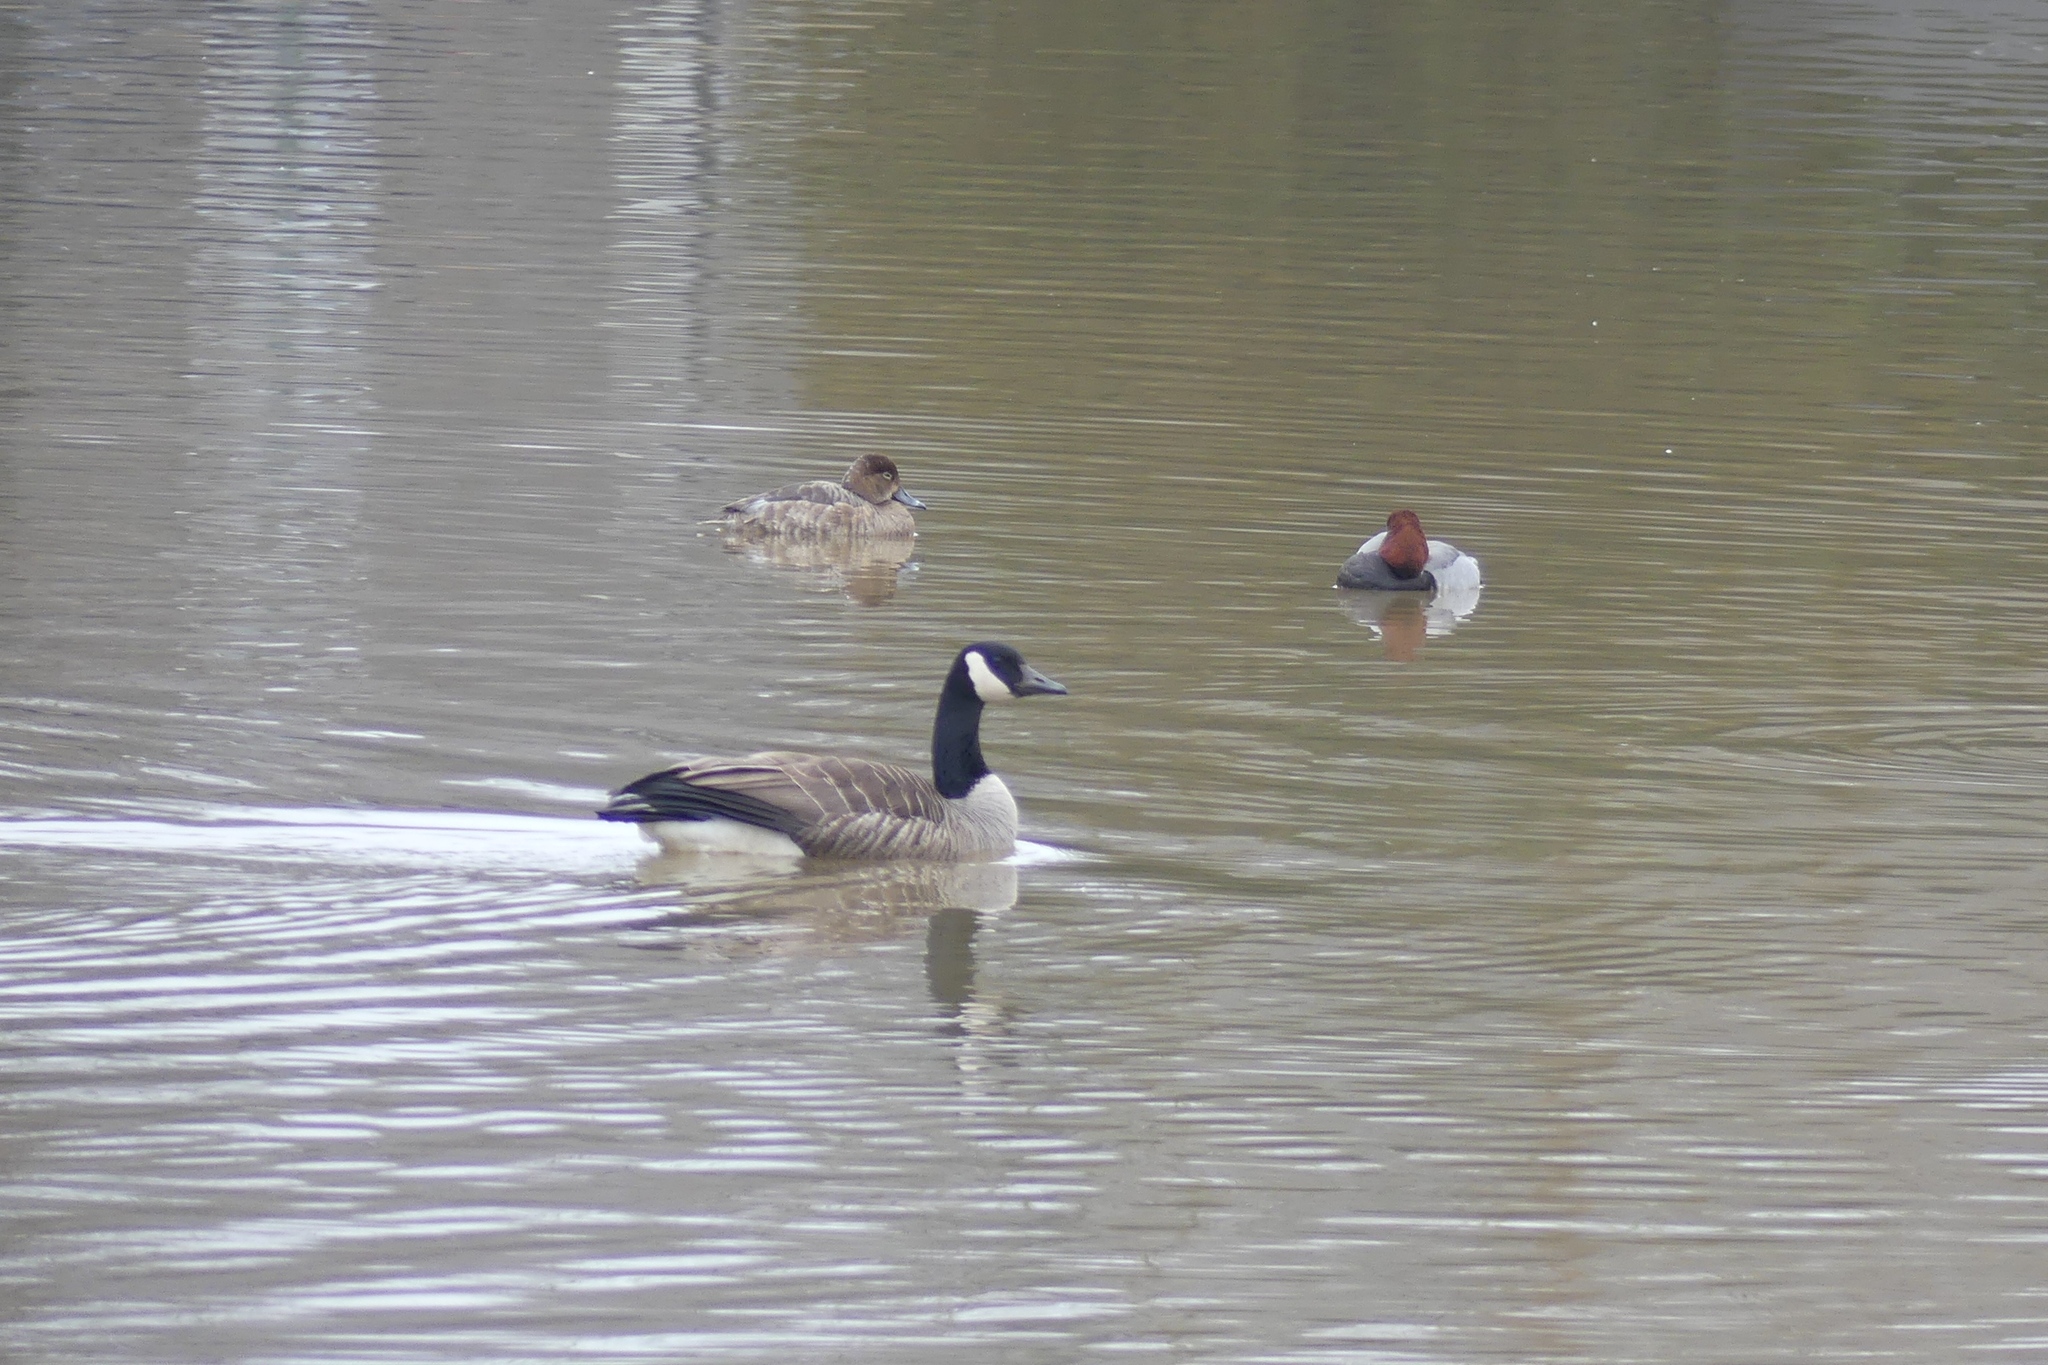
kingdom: Animalia
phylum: Chordata
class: Aves
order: Anseriformes
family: Anatidae
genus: Branta
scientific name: Branta canadensis
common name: Canada goose
